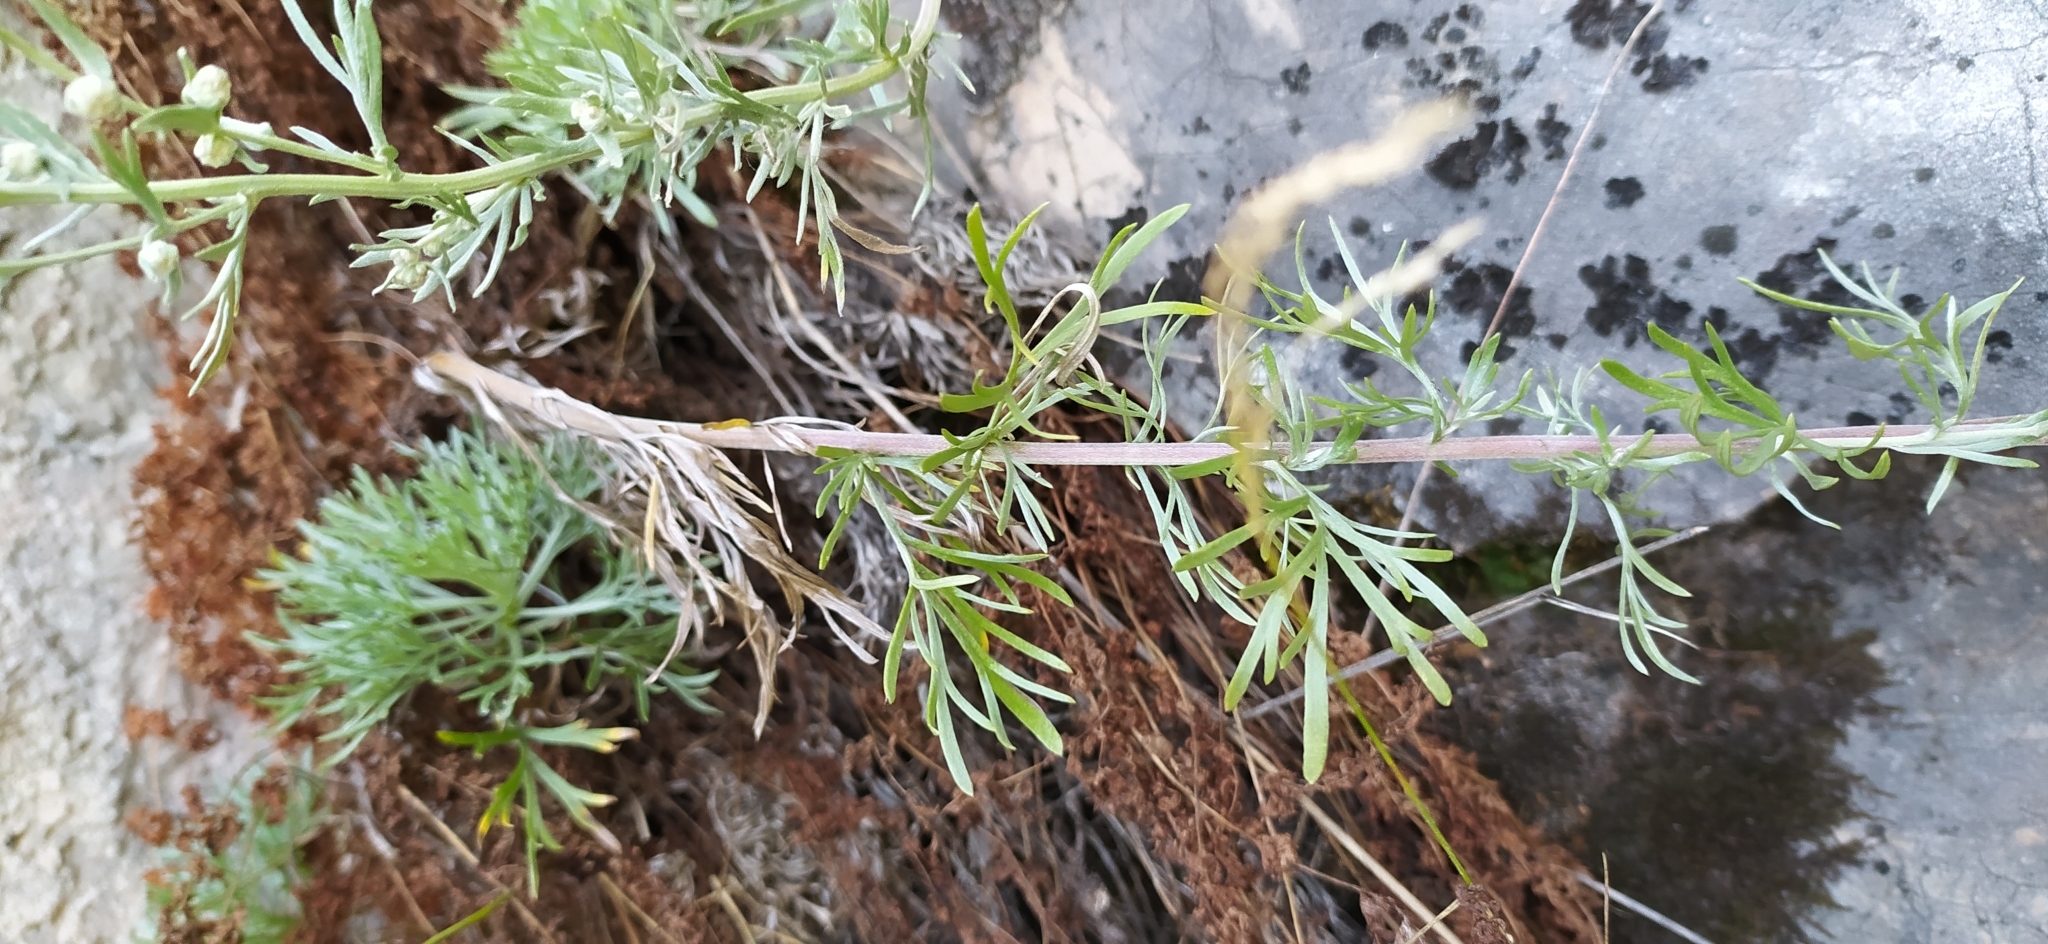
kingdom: Plantae
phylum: Tracheophyta
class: Magnoliopsida
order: Asterales
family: Asteraceae
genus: Artemisia
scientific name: Artemisia sericea
